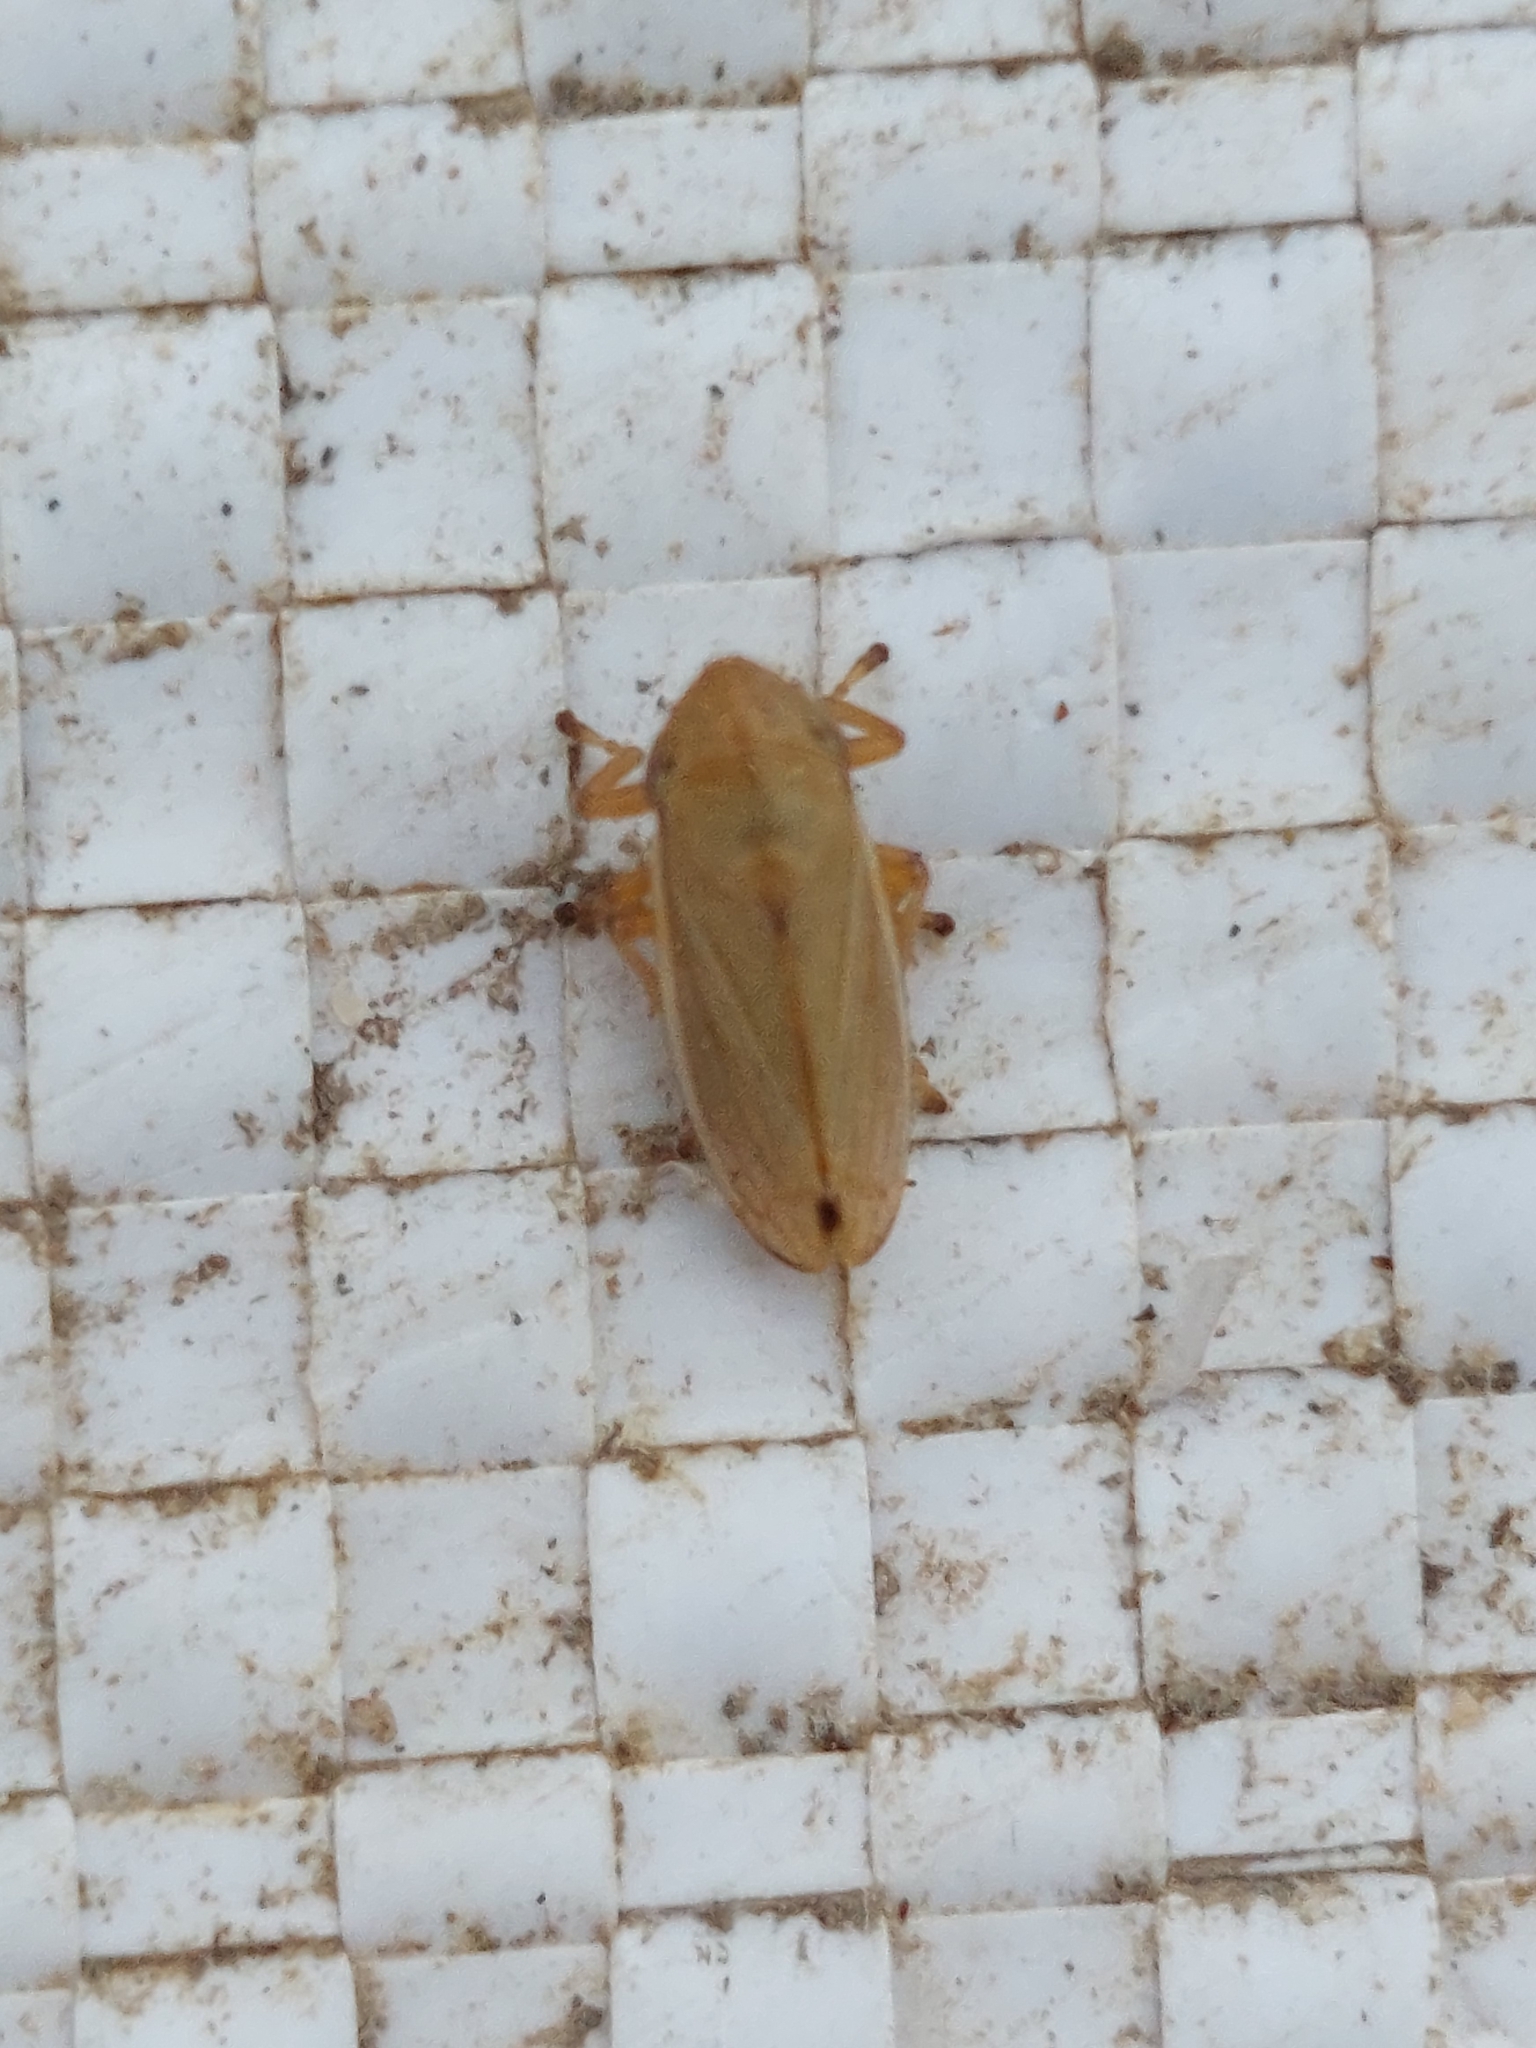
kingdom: Animalia
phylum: Arthropoda
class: Insecta
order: Hemiptera
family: Aphrophoridae
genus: Neophilaenus
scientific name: Neophilaenus lineatus
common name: Spittlebug
